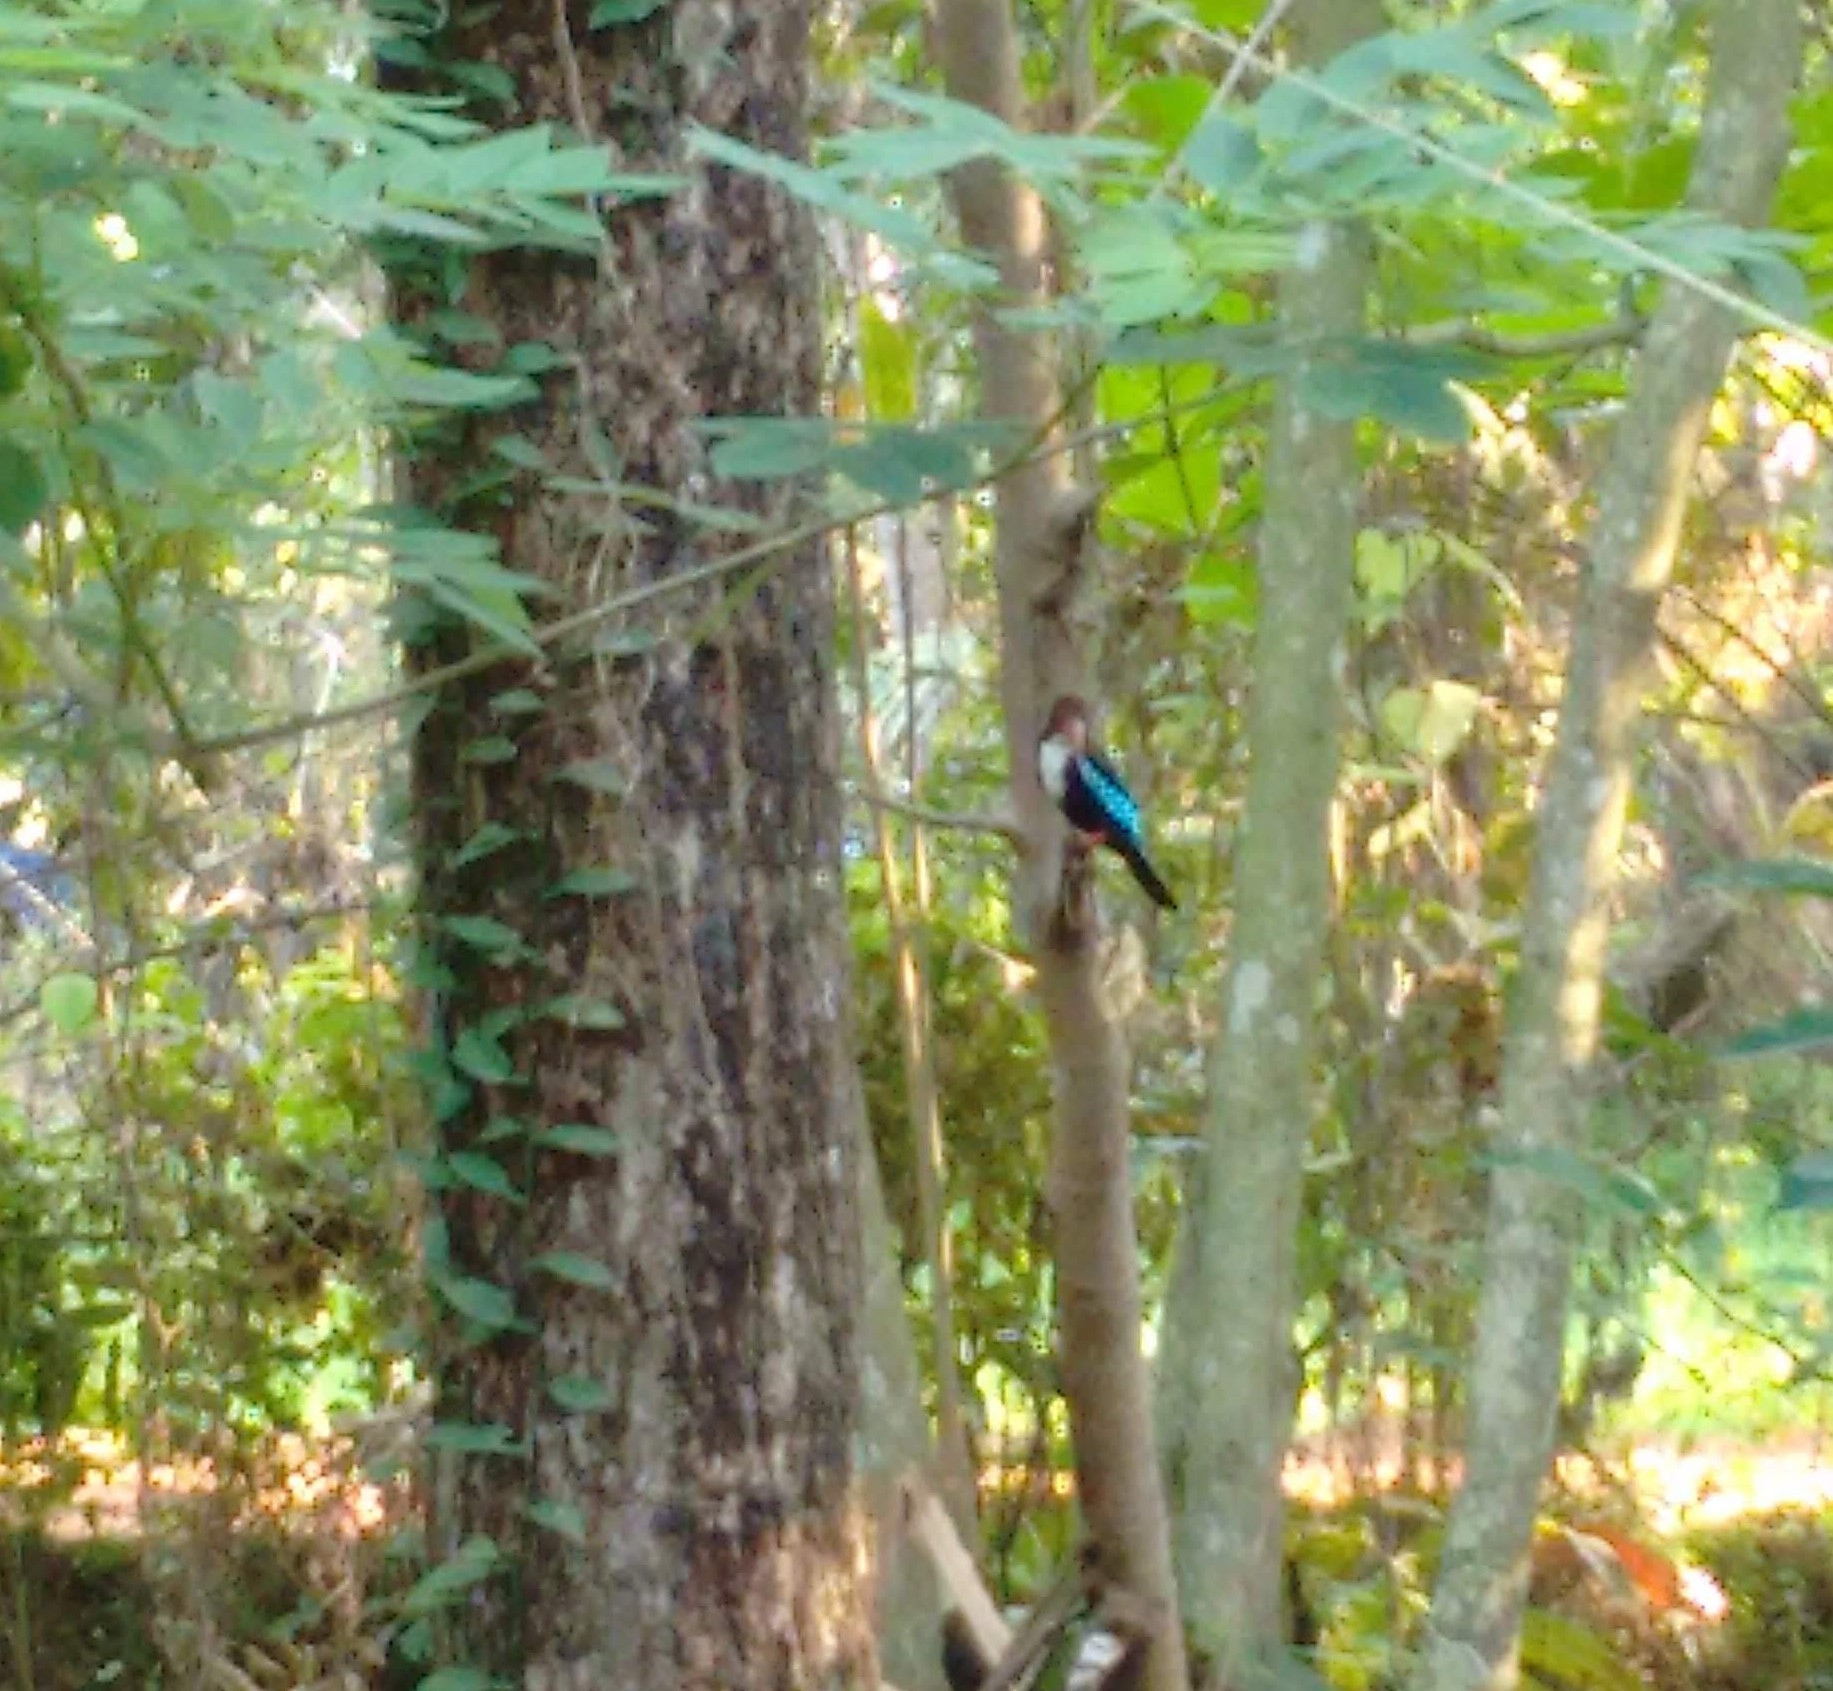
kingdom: Animalia
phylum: Chordata
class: Aves
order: Coraciiformes
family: Alcedinidae
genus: Halcyon
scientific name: Halcyon smyrnensis
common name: White-throated kingfisher
